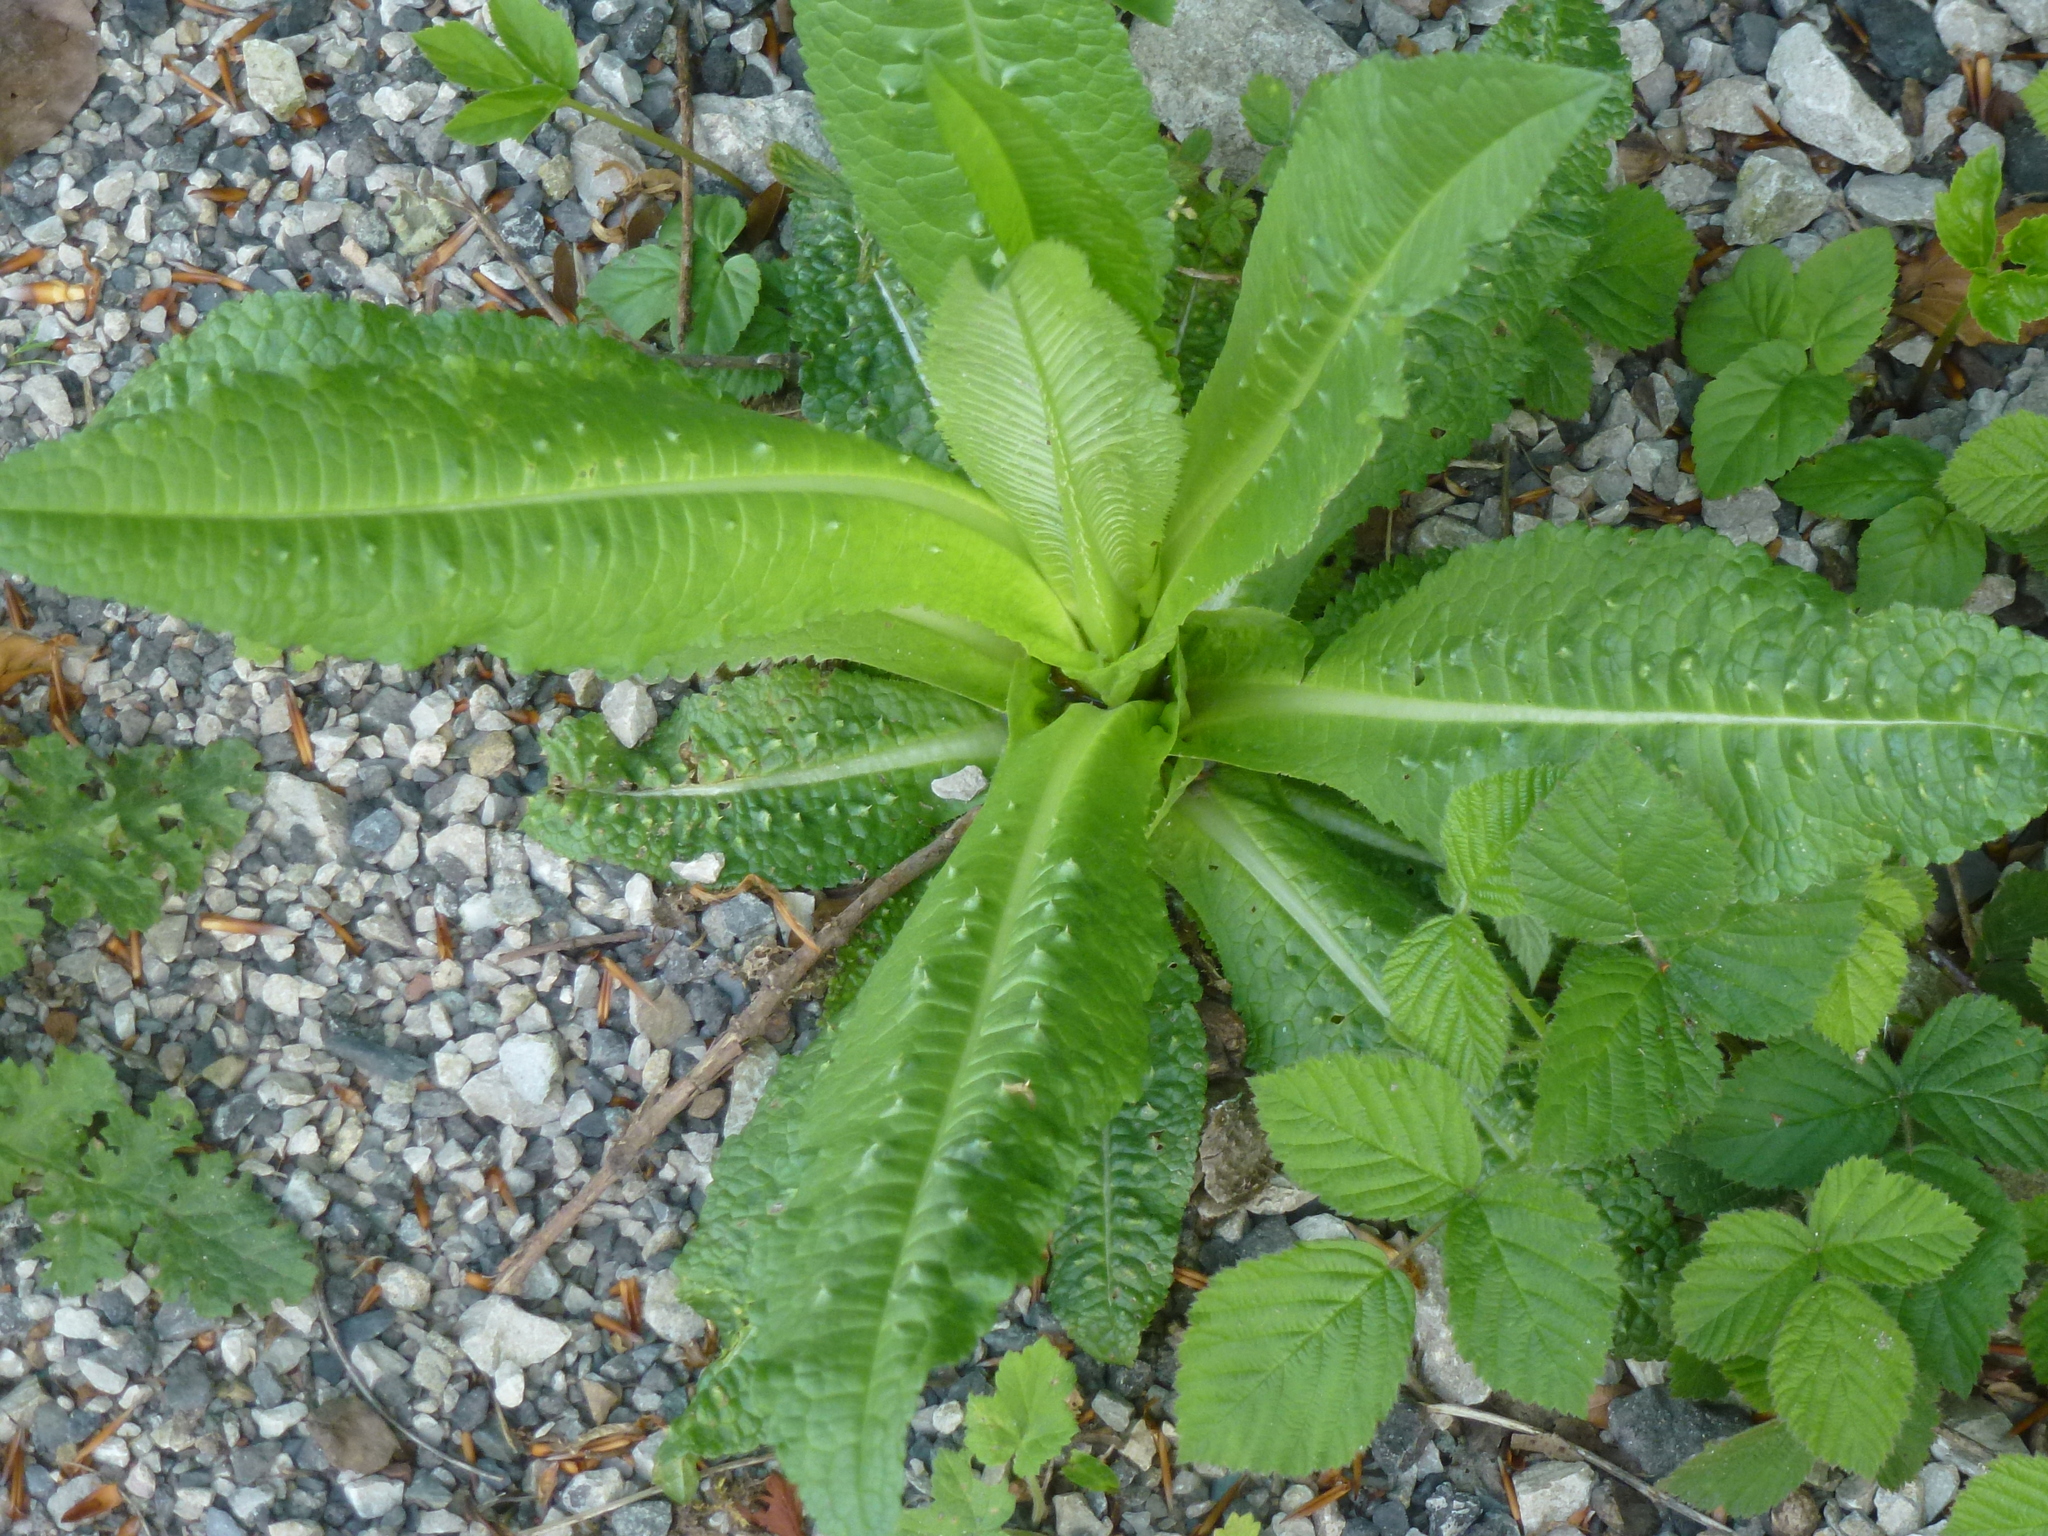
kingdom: Plantae
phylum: Tracheophyta
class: Magnoliopsida
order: Dipsacales
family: Caprifoliaceae
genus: Dipsacus
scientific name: Dipsacus fullonum
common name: Teasel
